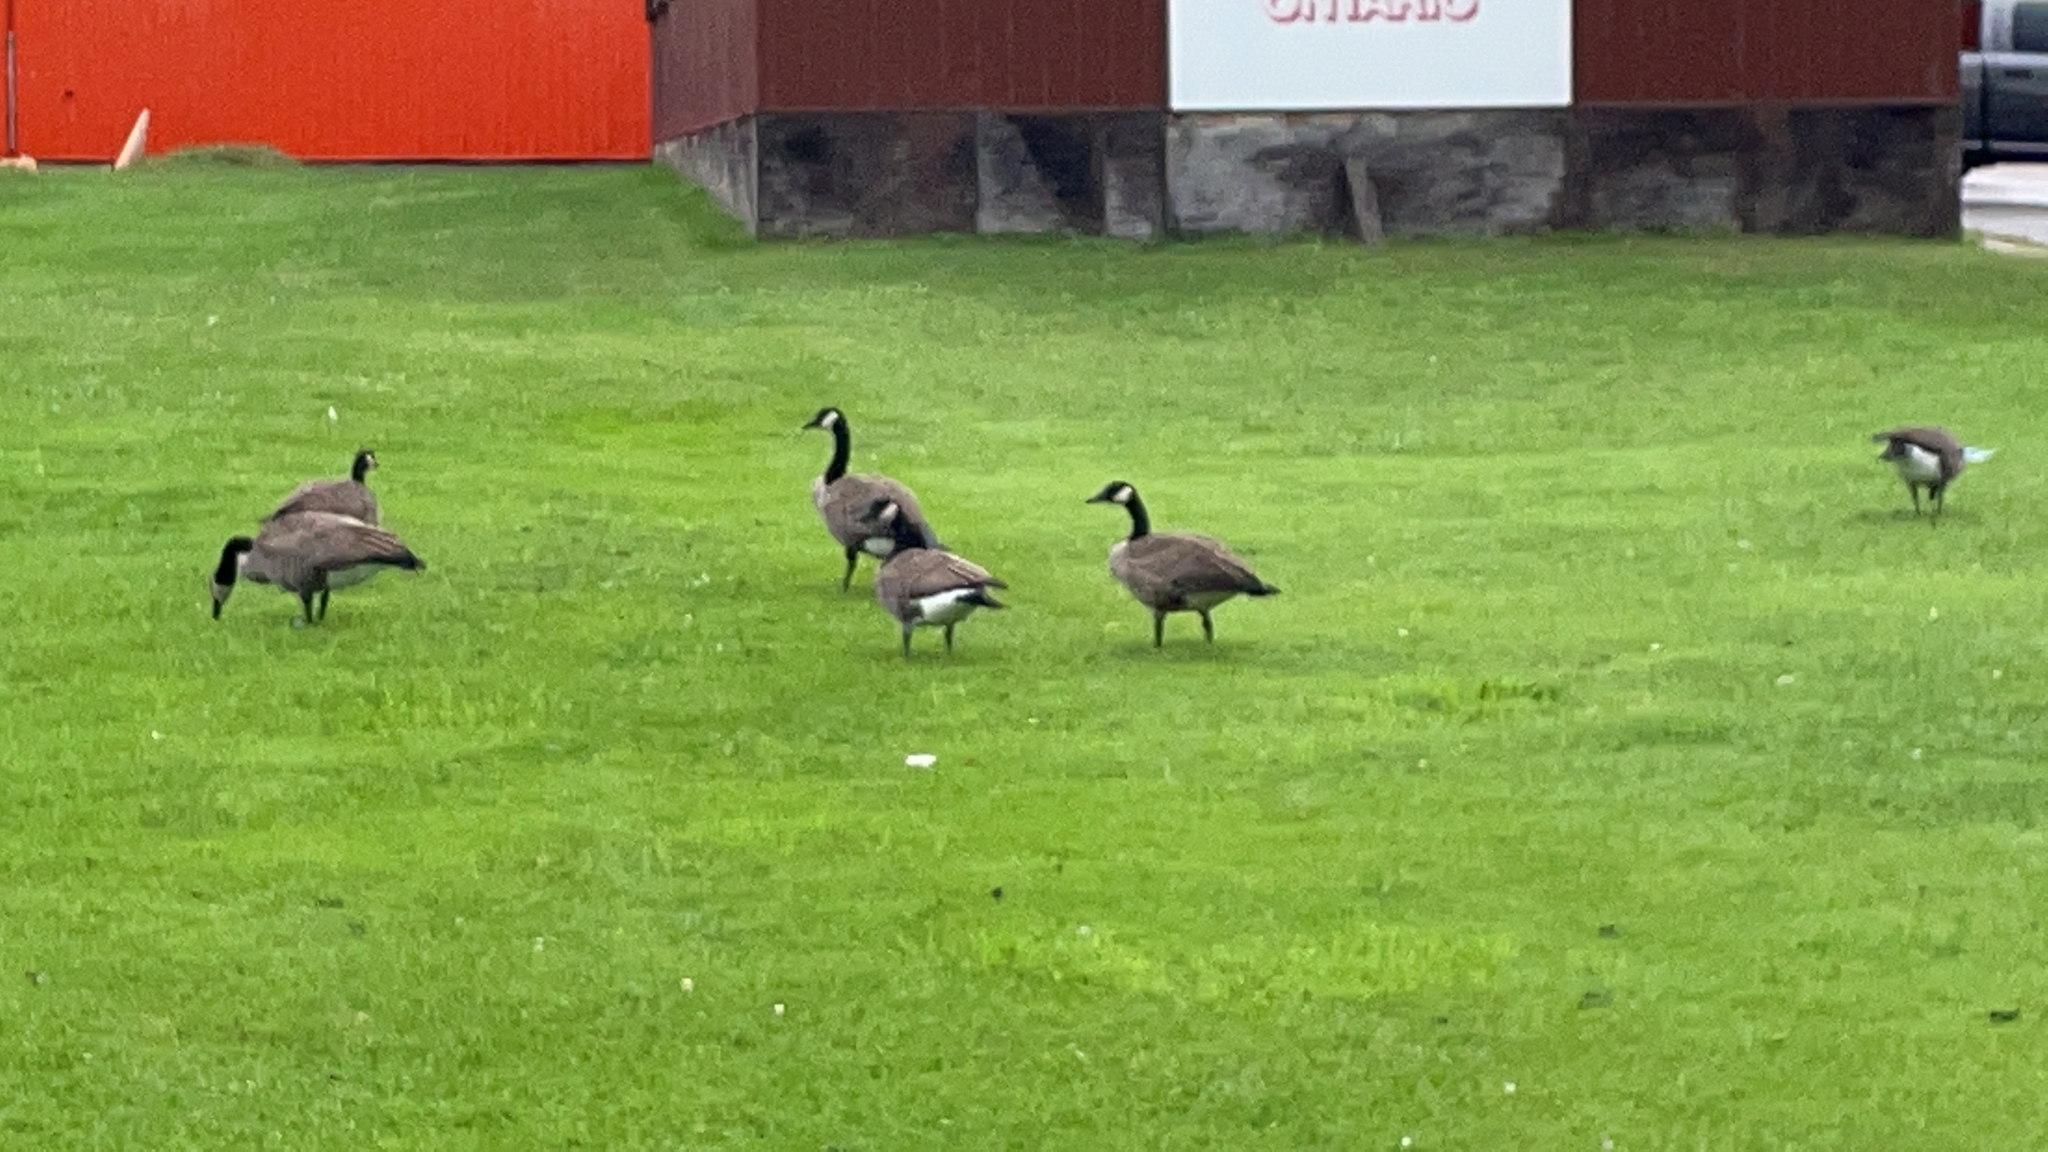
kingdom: Animalia
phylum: Chordata
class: Aves
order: Anseriformes
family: Anatidae
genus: Branta
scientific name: Branta canadensis
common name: Canada goose
